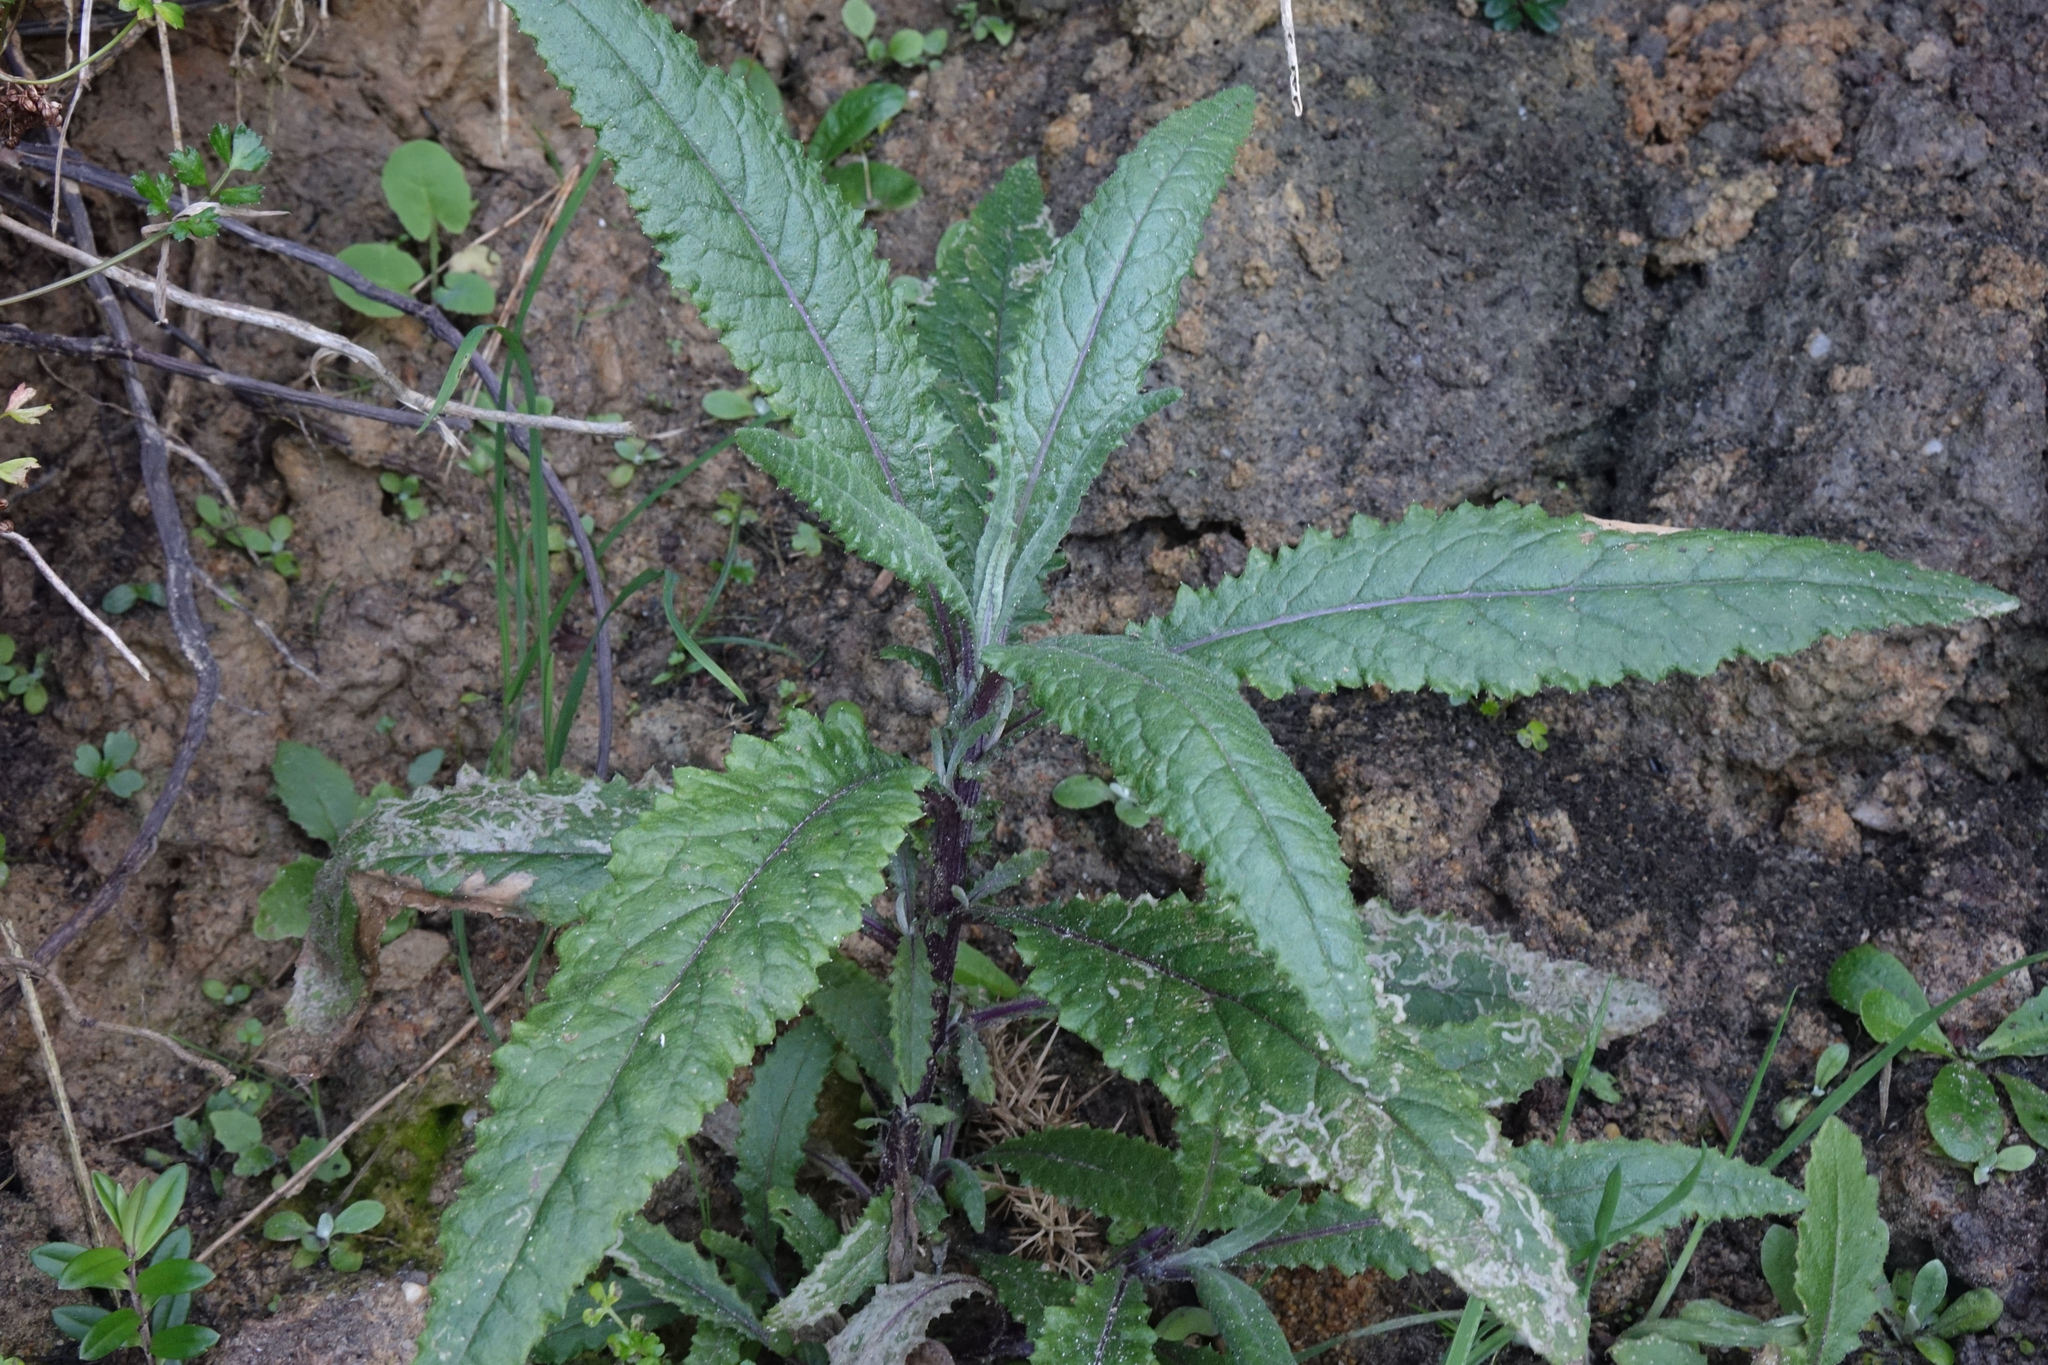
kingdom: Plantae
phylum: Tracheophyta
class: Magnoliopsida
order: Asterales
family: Asteraceae
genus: Senecio
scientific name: Senecio minimus
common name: Toothed fireweed
